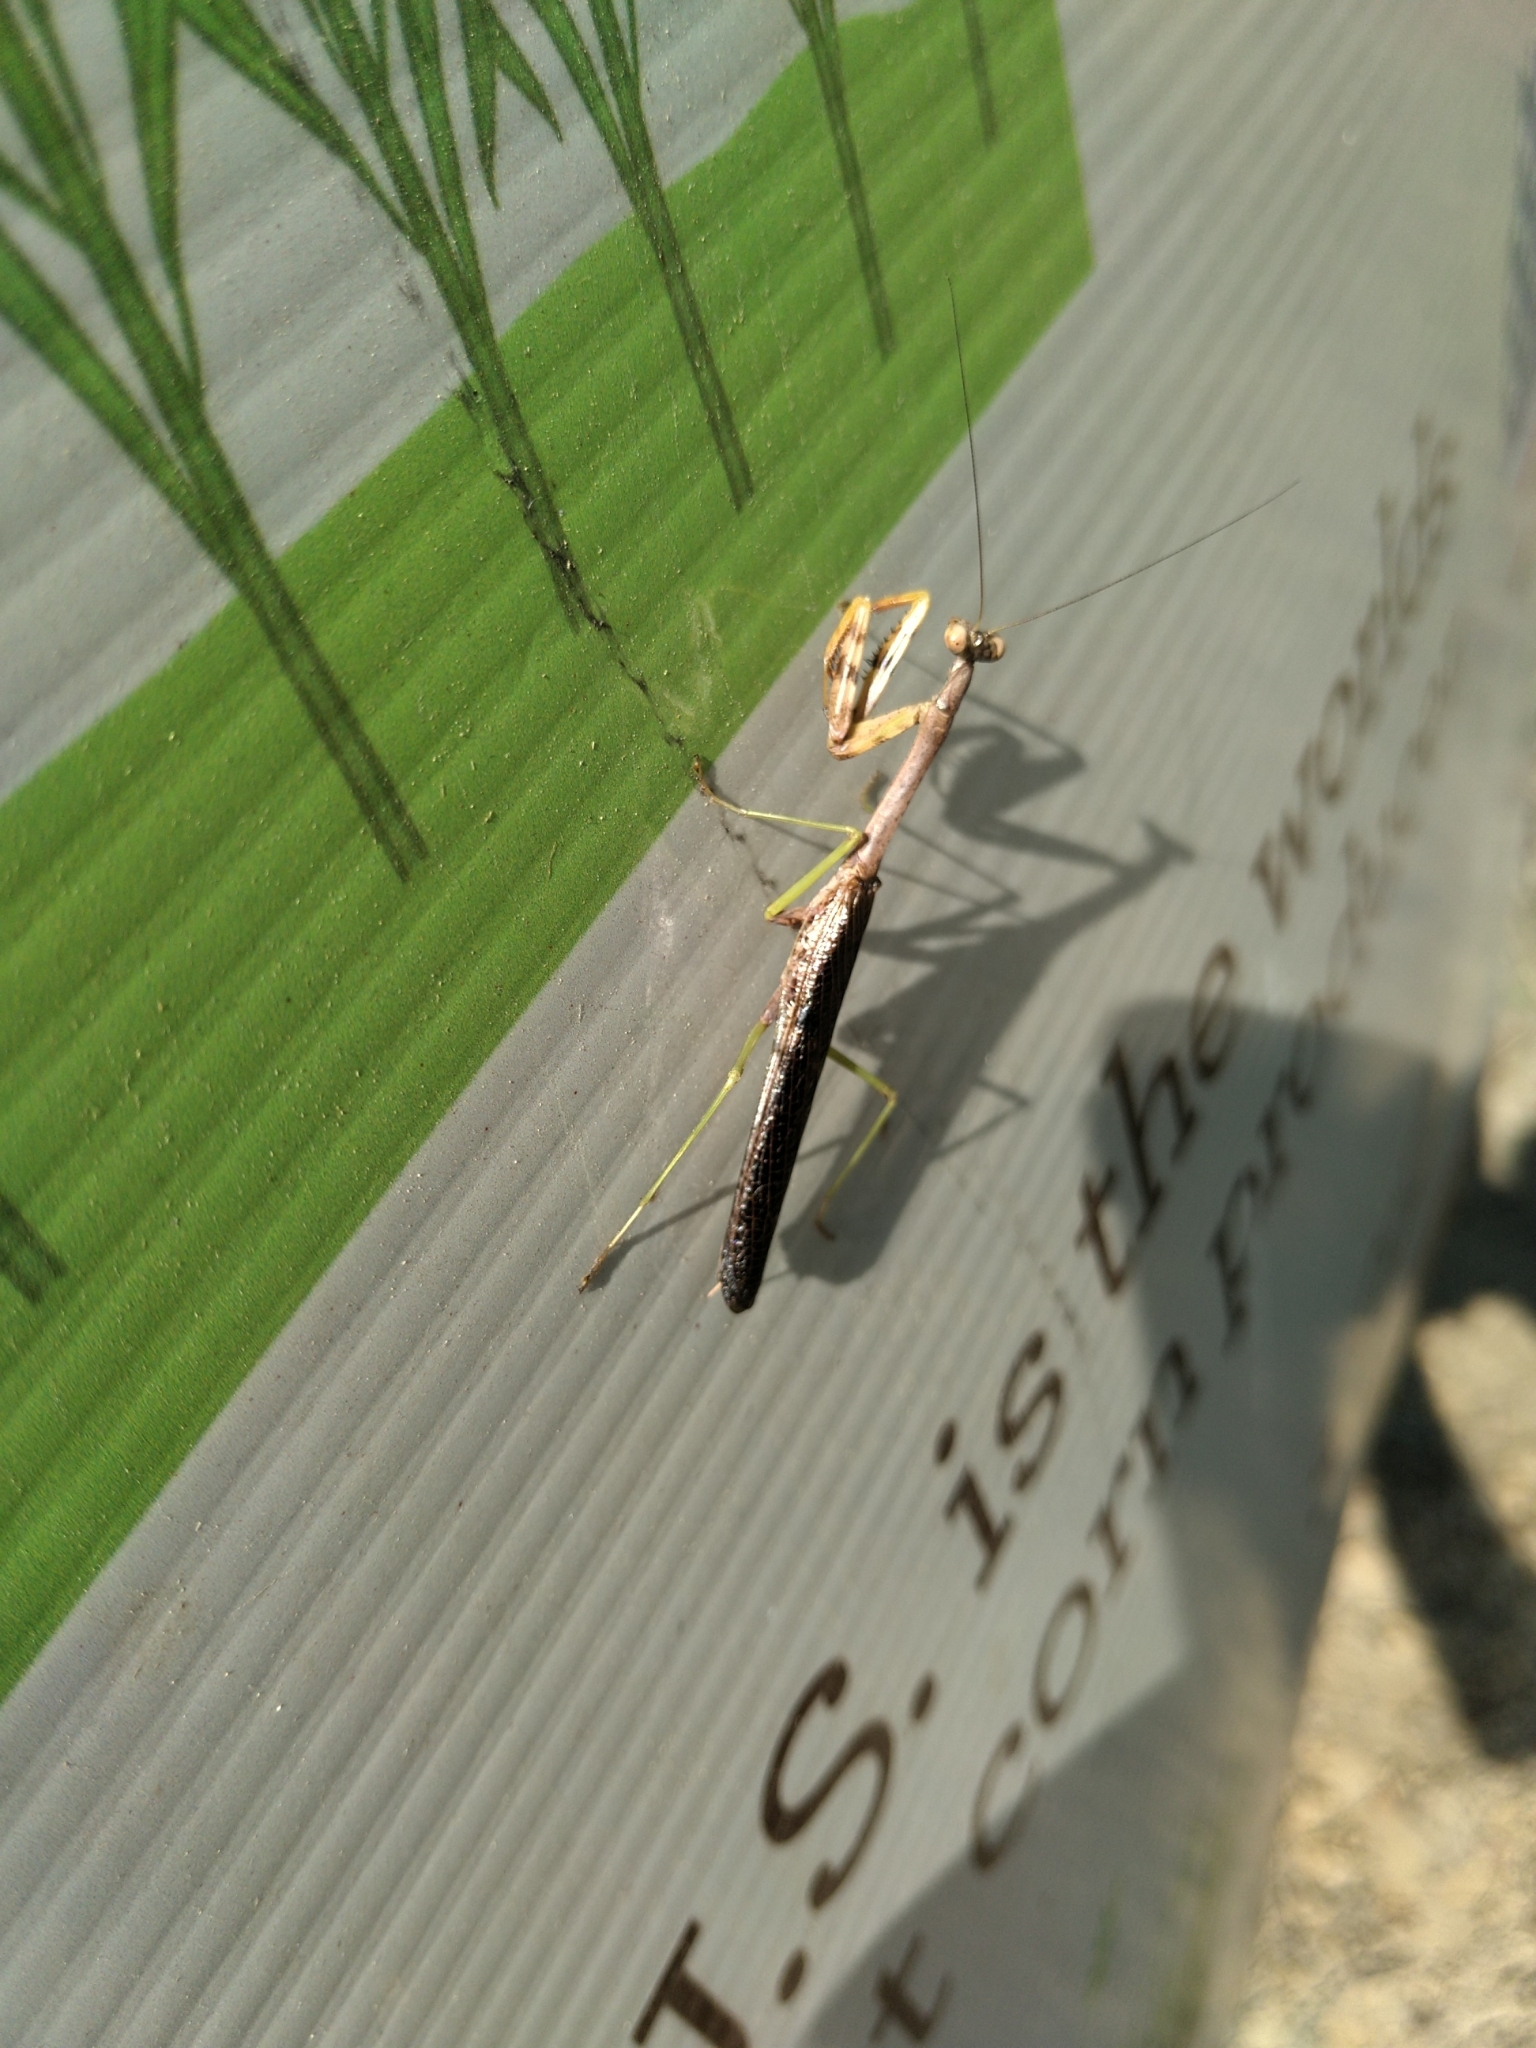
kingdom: Animalia
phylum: Arthropoda
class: Insecta
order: Mantodea
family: Mantidae
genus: Stagmomantis
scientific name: Stagmomantis carolina
